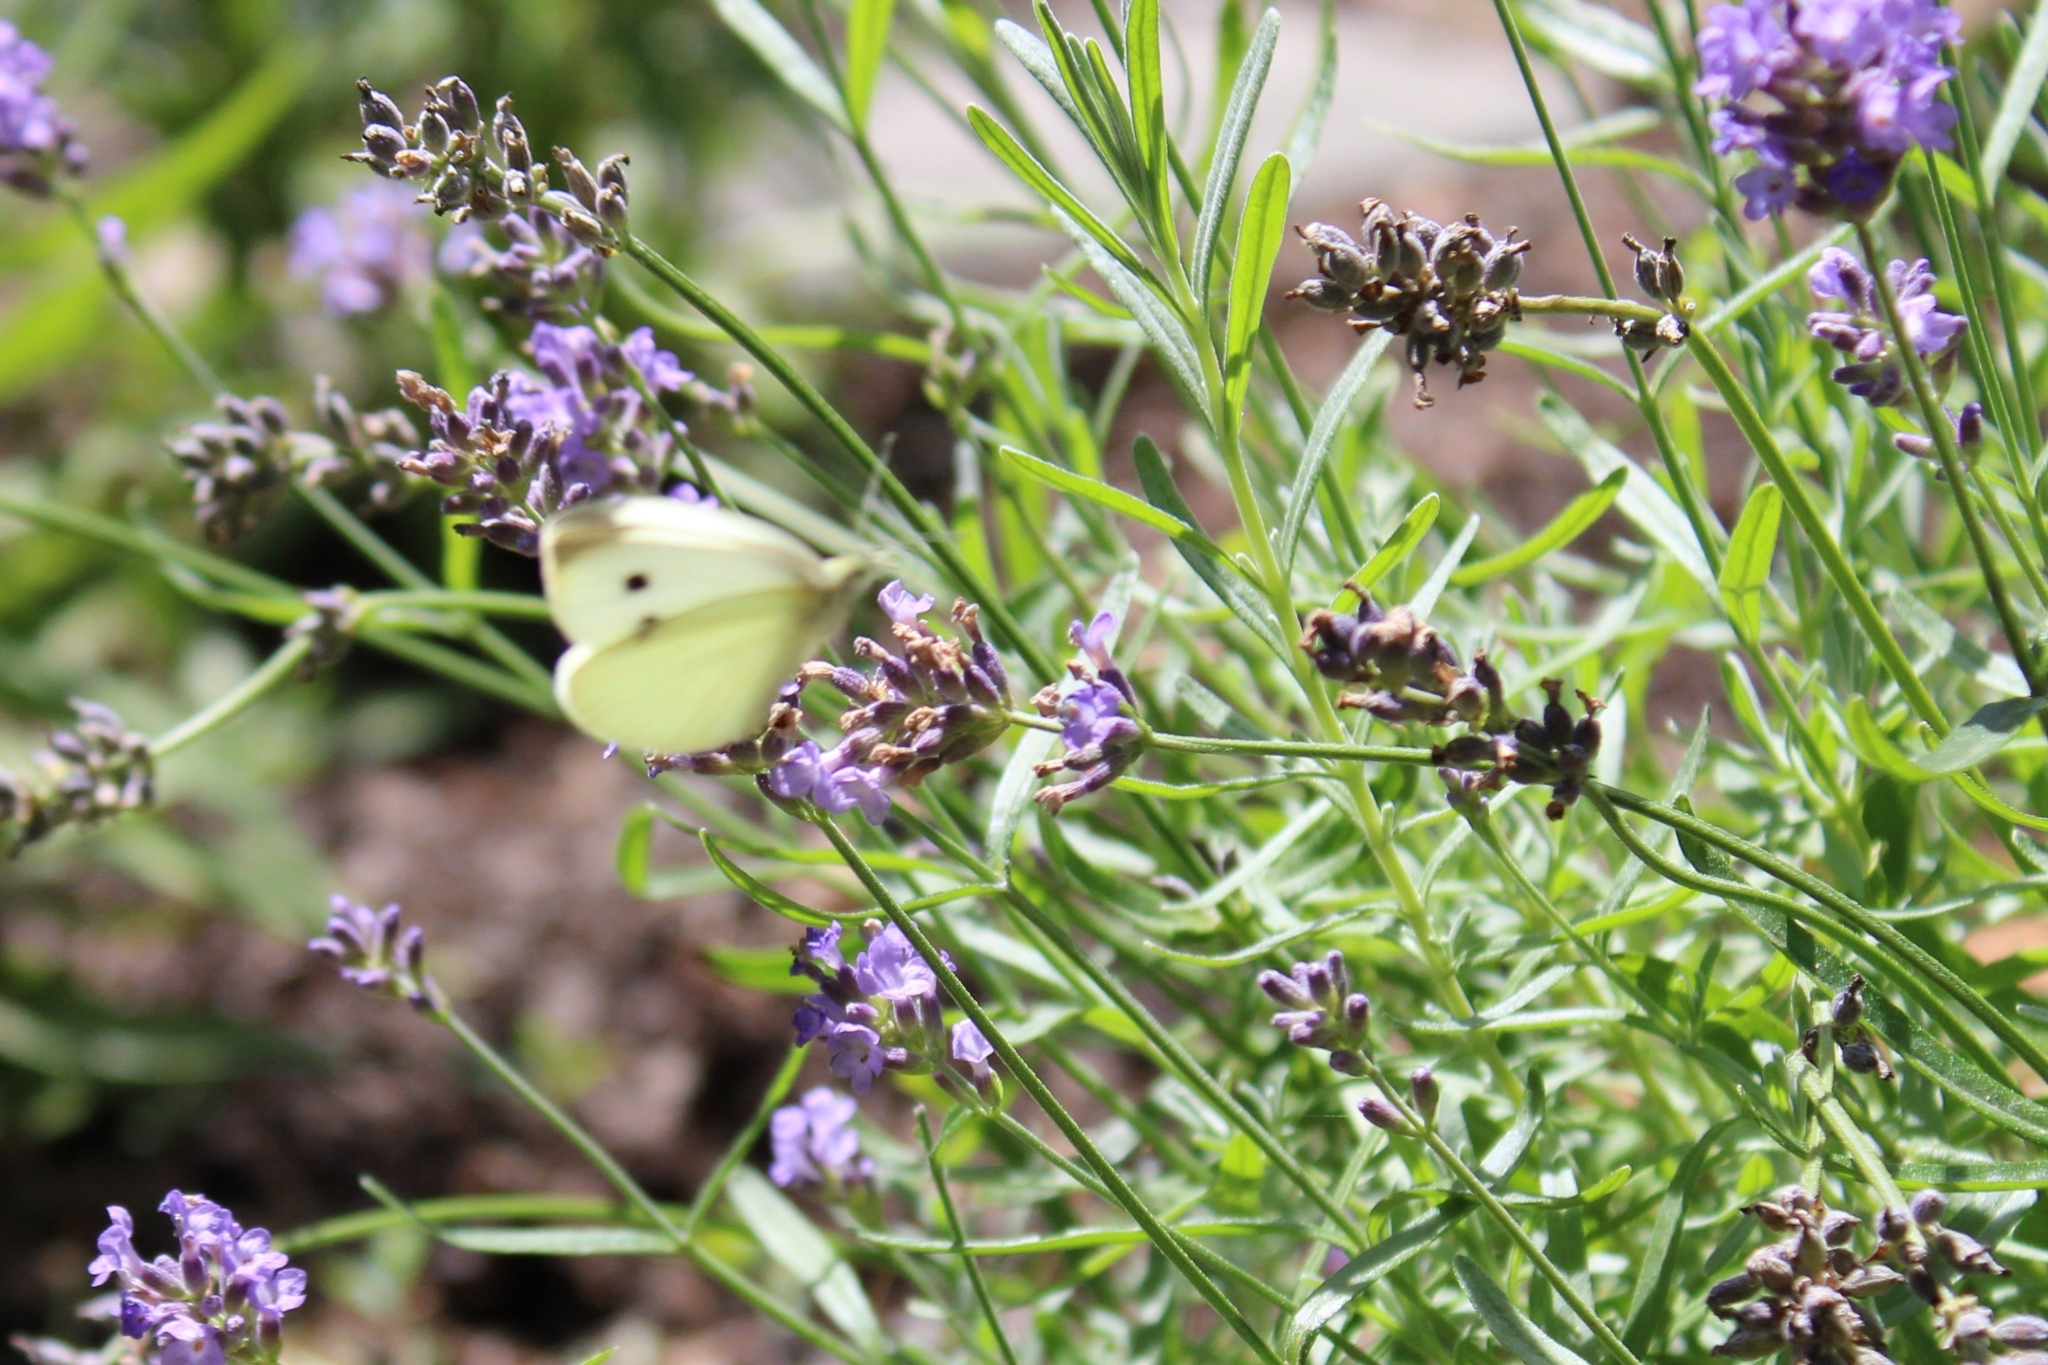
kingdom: Animalia
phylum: Arthropoda
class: Insecta
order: Lepidoptera
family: Pieridae
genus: Pieris
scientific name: Pieris rapae
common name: Small white
